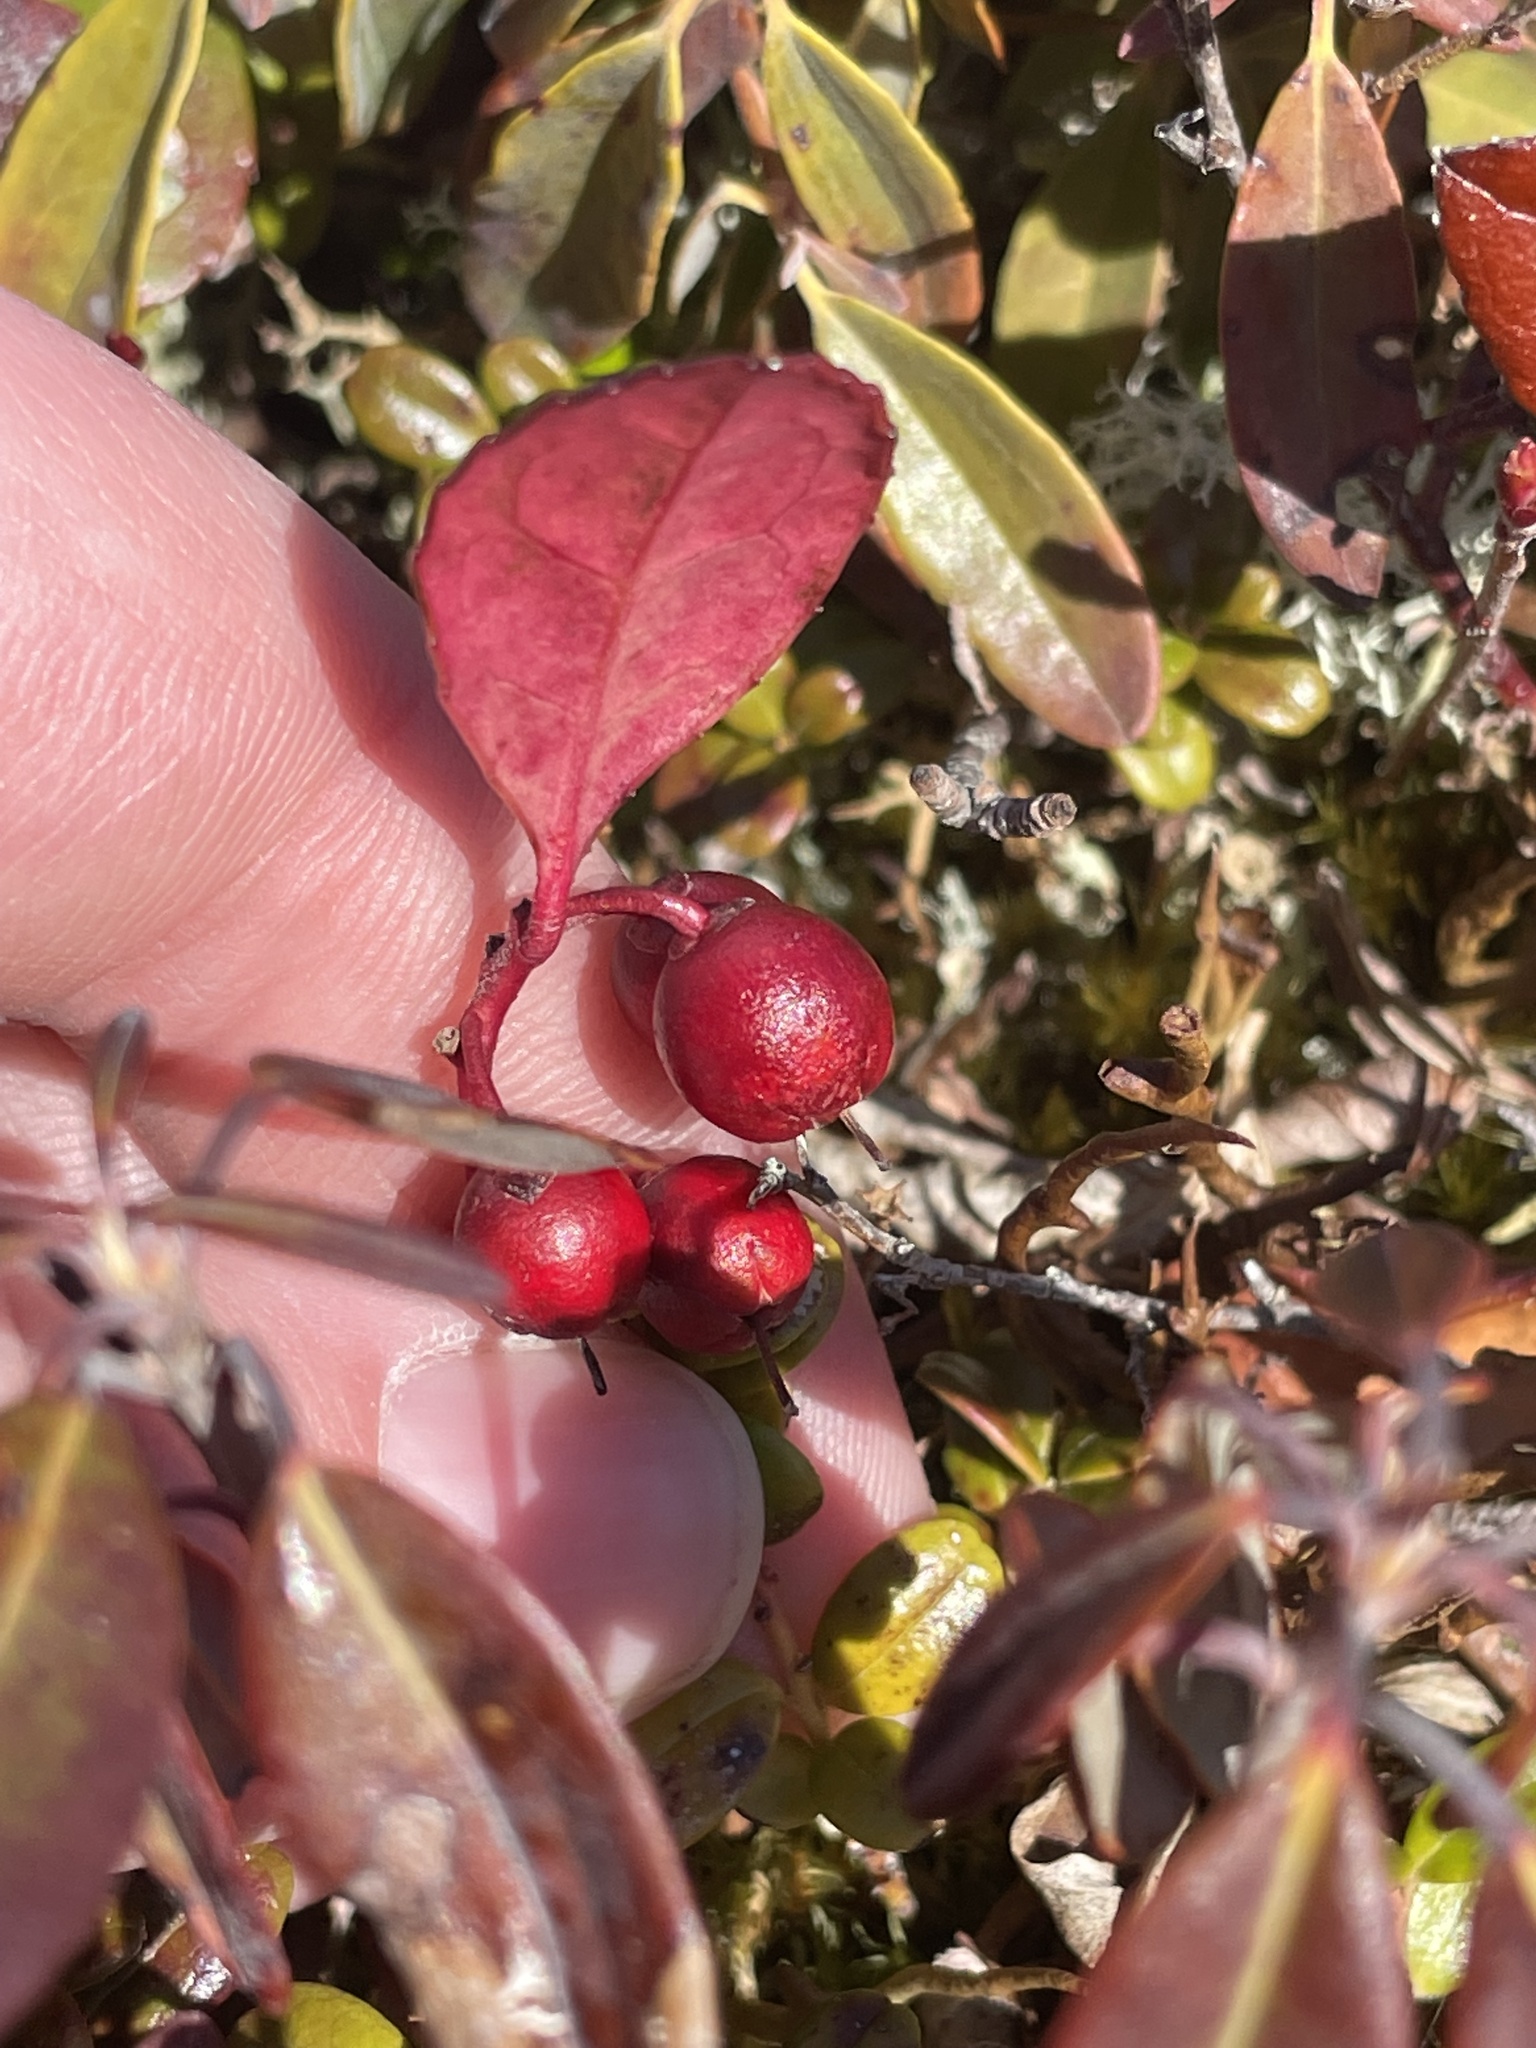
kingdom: Plantae
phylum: Tracheophyta
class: Magnoliopsida
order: Ericales
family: Ericaceae
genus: Gaultheria
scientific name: Gaultheria procumbens
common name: Checkerberry
